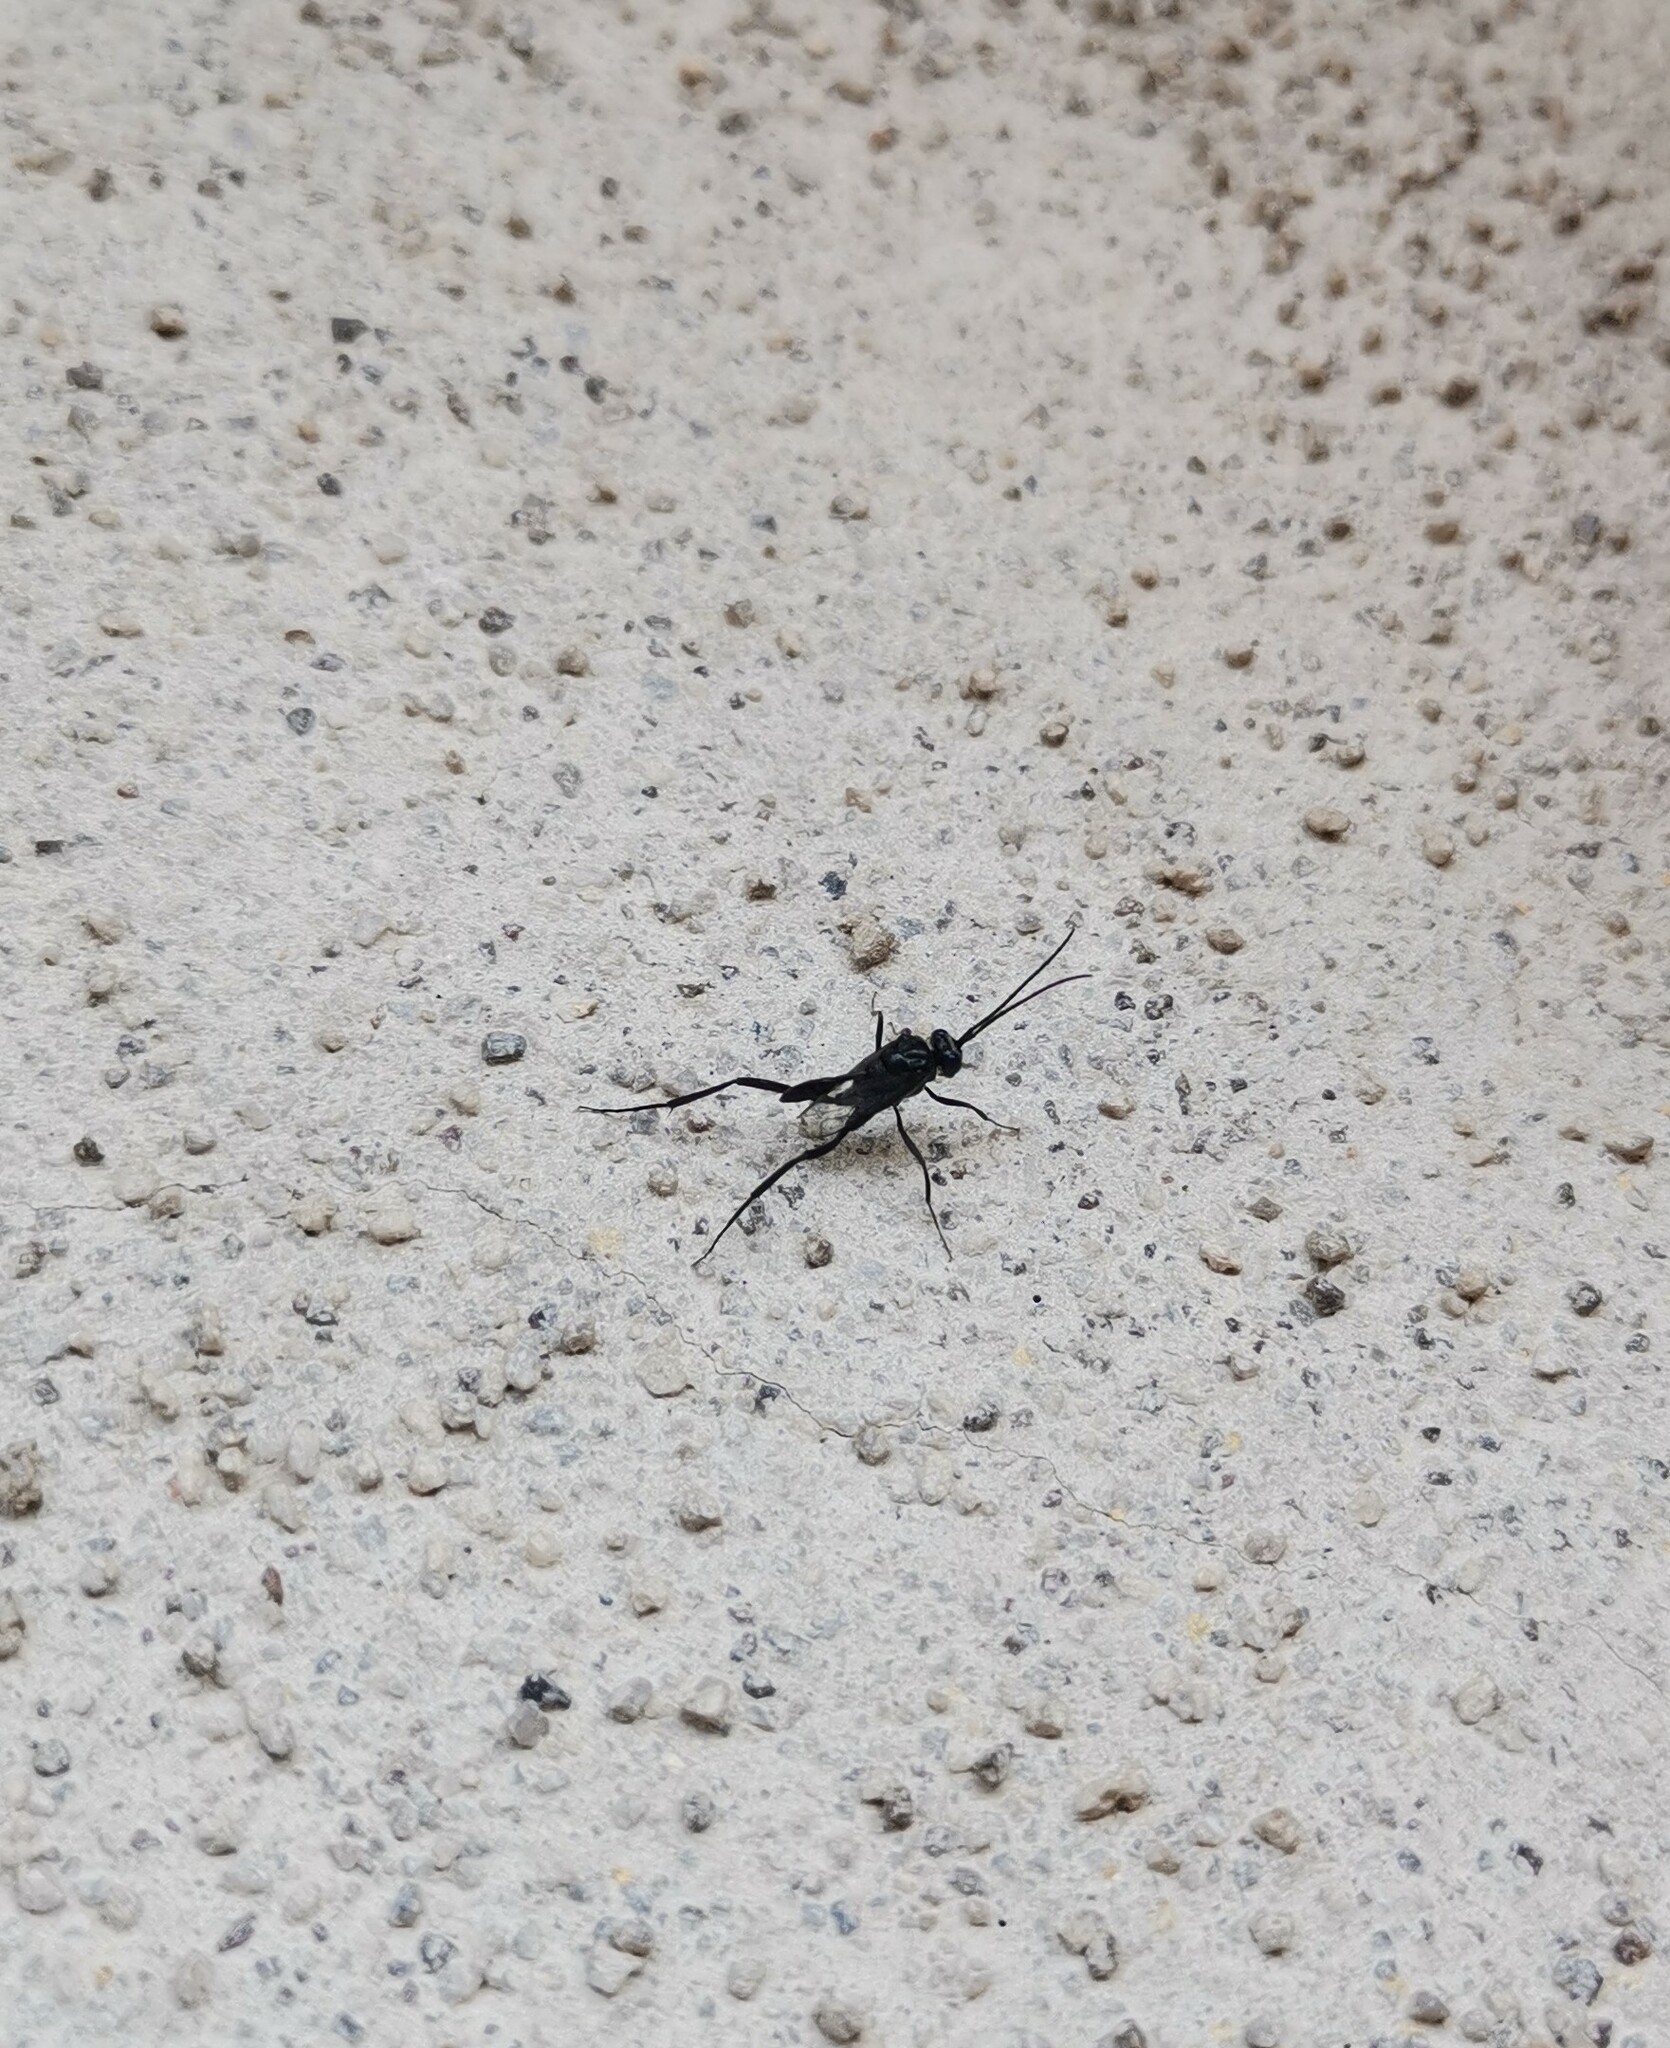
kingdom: Animalia
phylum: Arthropoda
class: Insecta
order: Hymenoptera
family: Evaniidae
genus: Evania
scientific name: Evania appendigaster
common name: Ensign wasp
